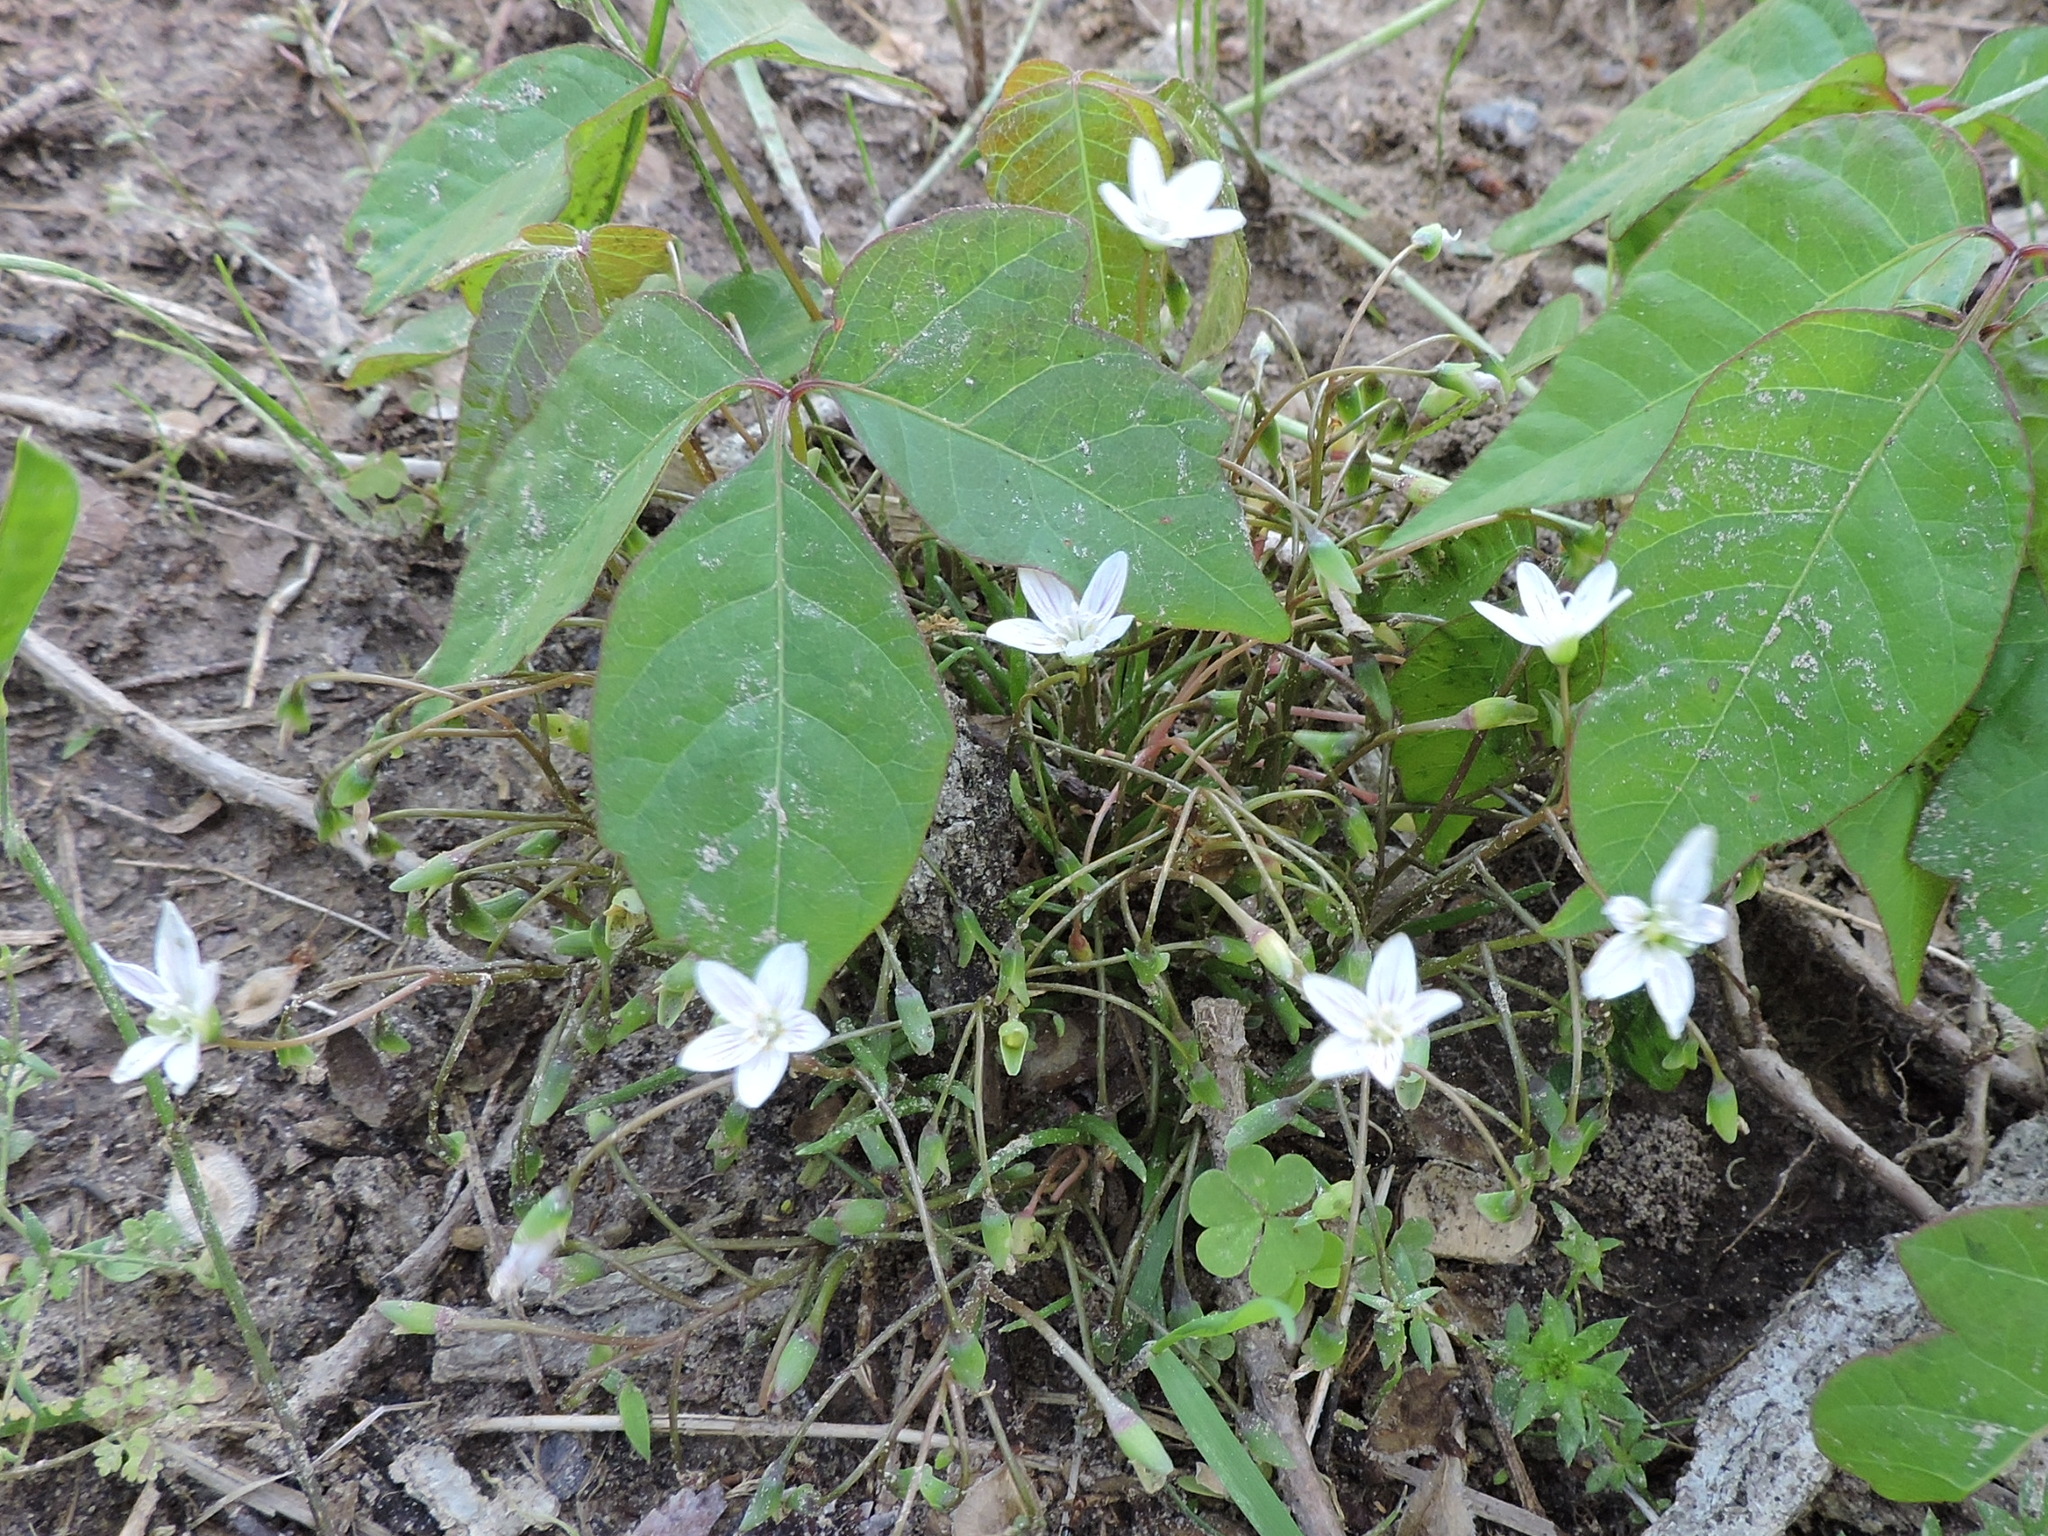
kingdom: Plantae
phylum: Tracheophyta
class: Magnoliopsida
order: Caryophyllales
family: Montiaceae
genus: Claytonia
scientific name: Claytonia virginica
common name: Virginia springbeauty
